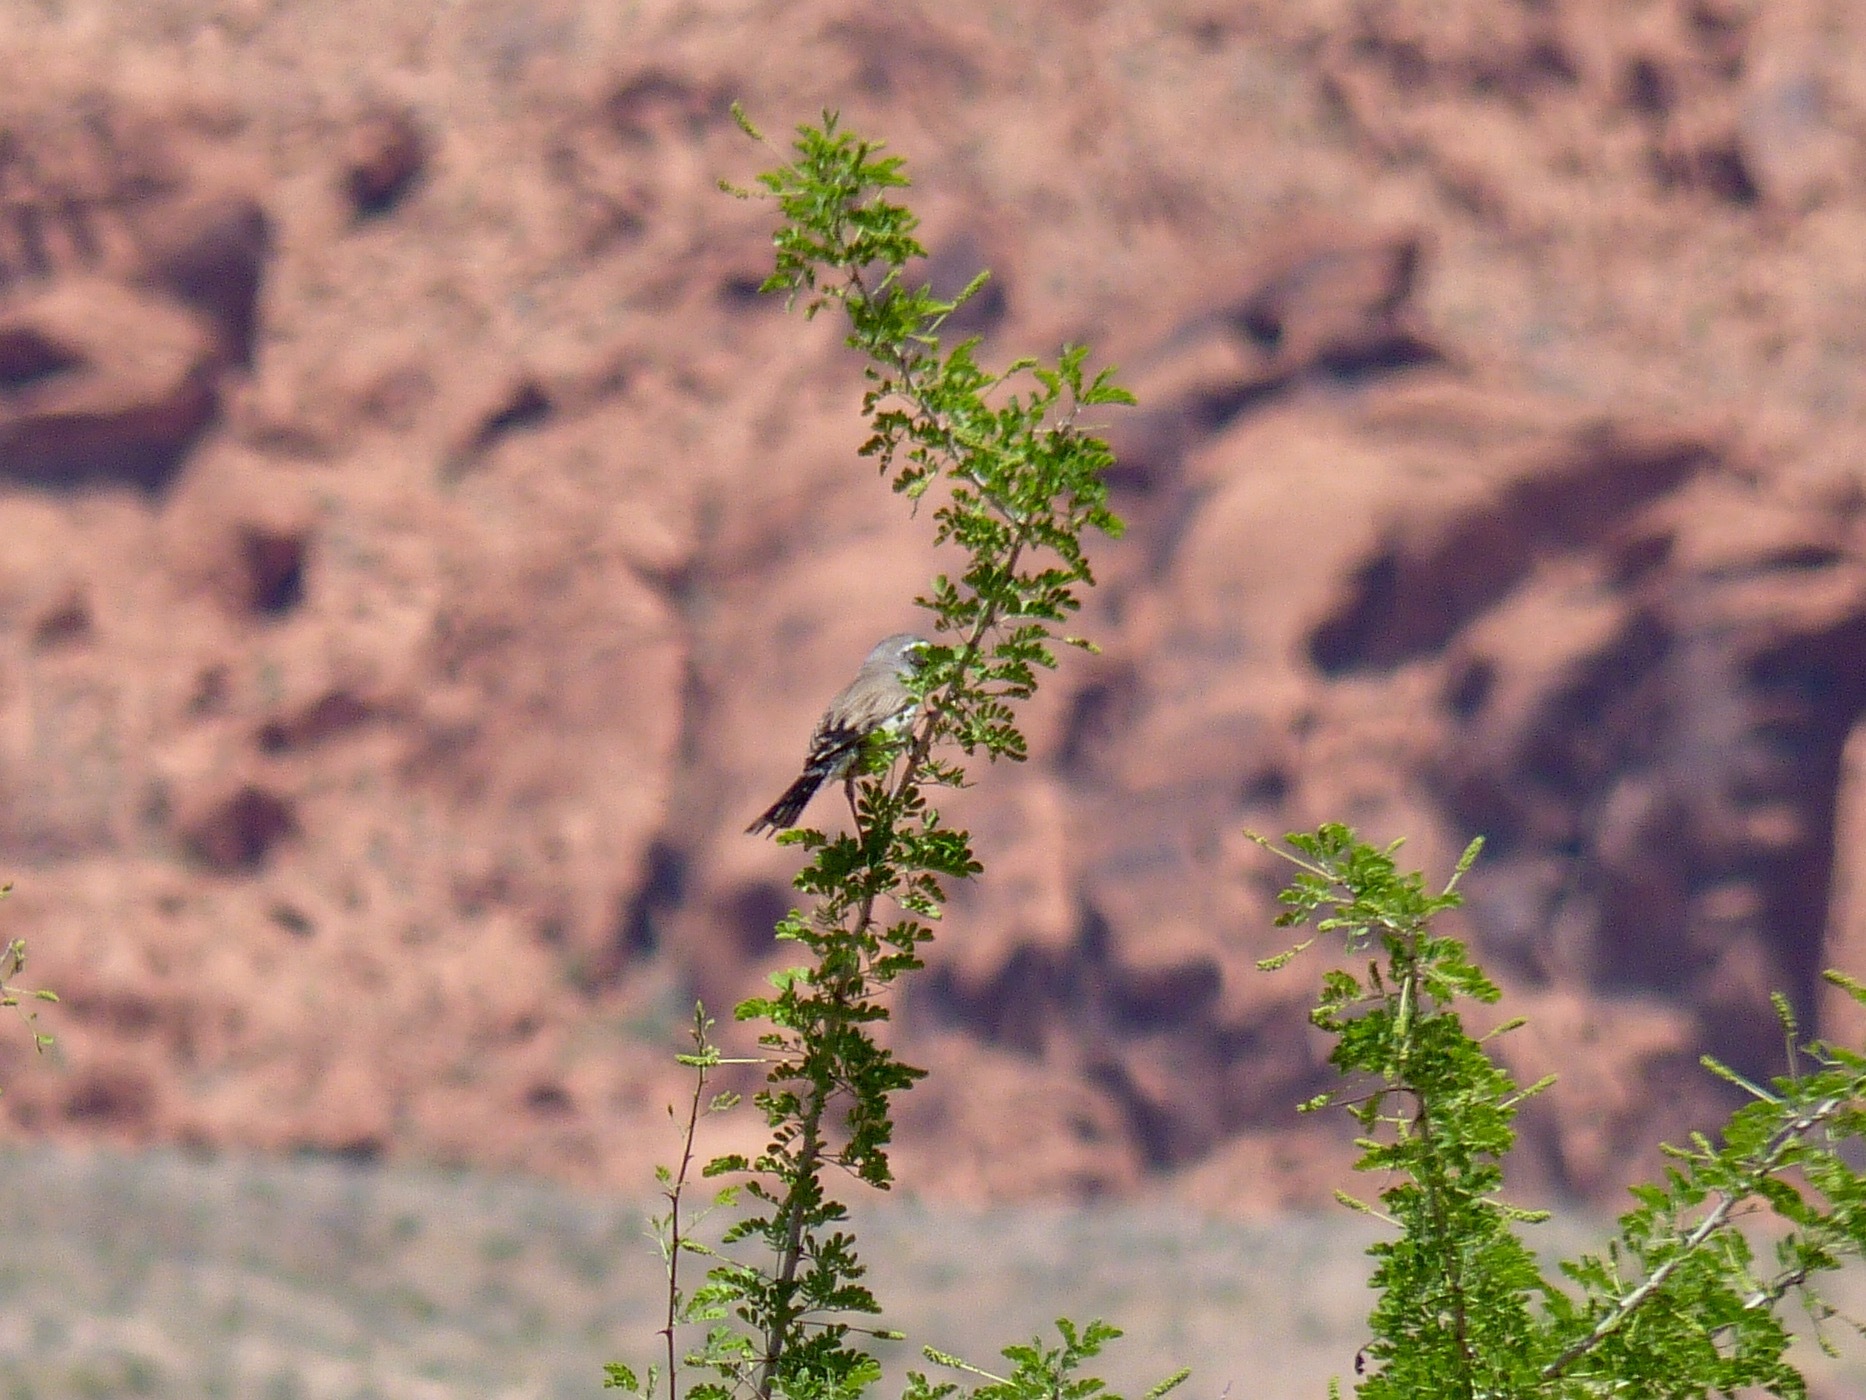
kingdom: Animalia
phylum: Chordata
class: Aves
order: Passeriformes
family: Passerellidae
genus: Amphispiza
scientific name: Amphispiza bilineata
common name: Black-throated sparrow
